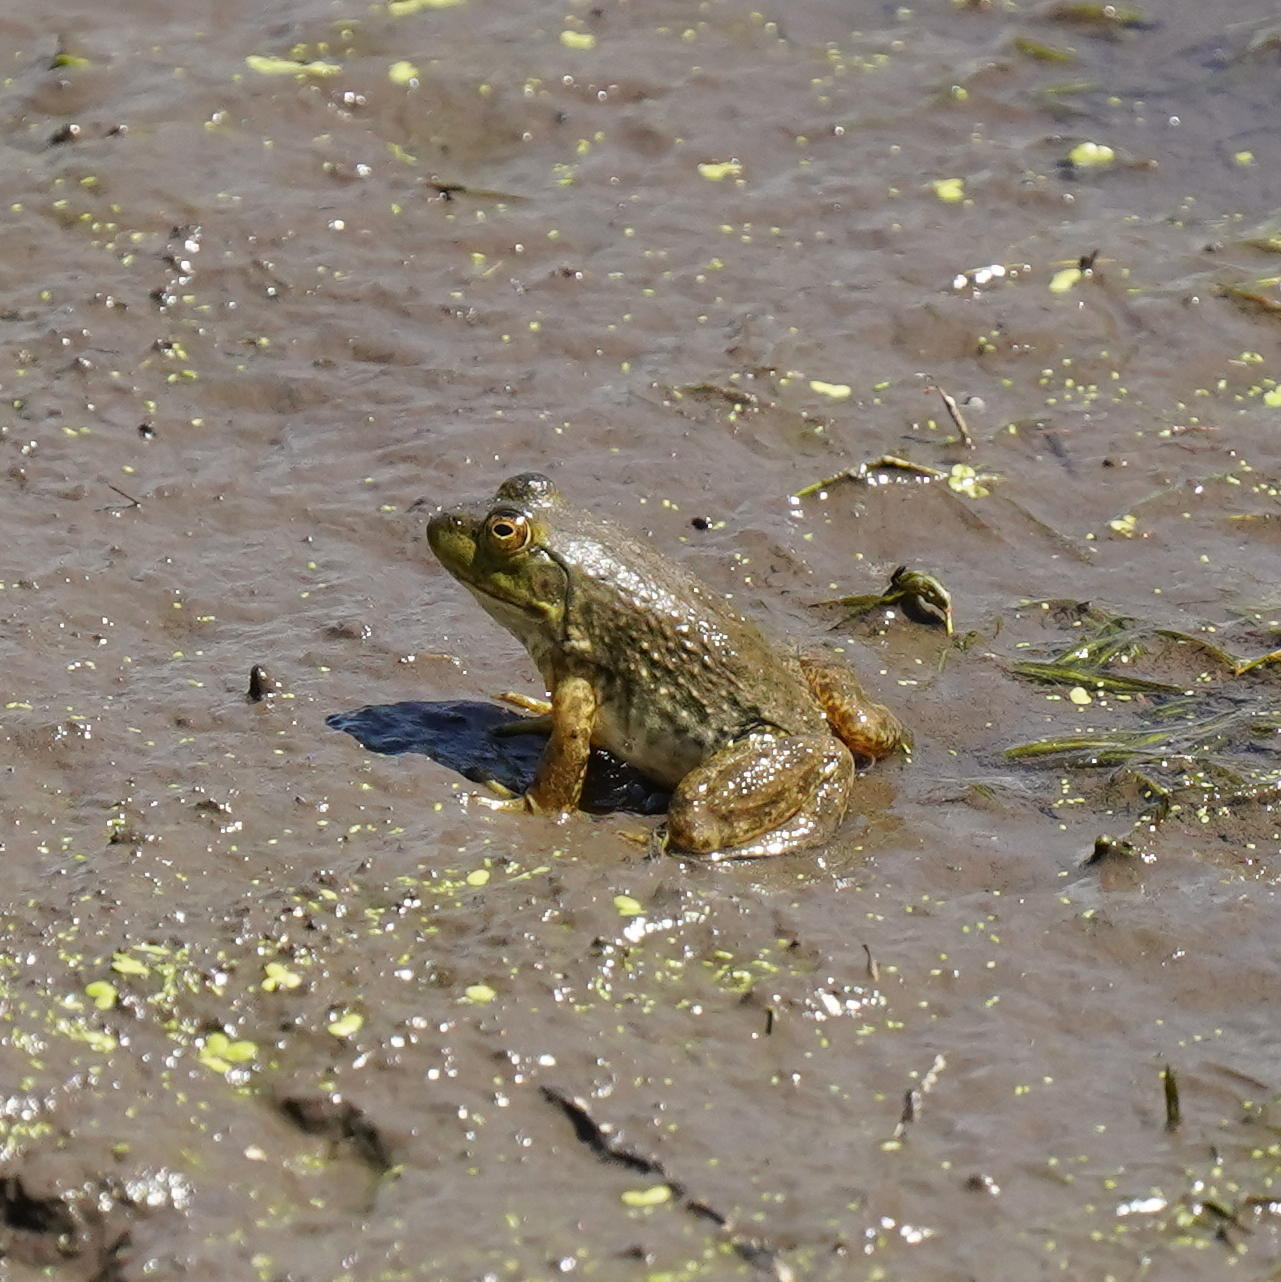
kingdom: Animalia
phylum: Chordata
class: Amphibia
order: Anura
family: Ranidae
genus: Lithobates
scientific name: Lithobates catesbeianus
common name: American bullfrog
